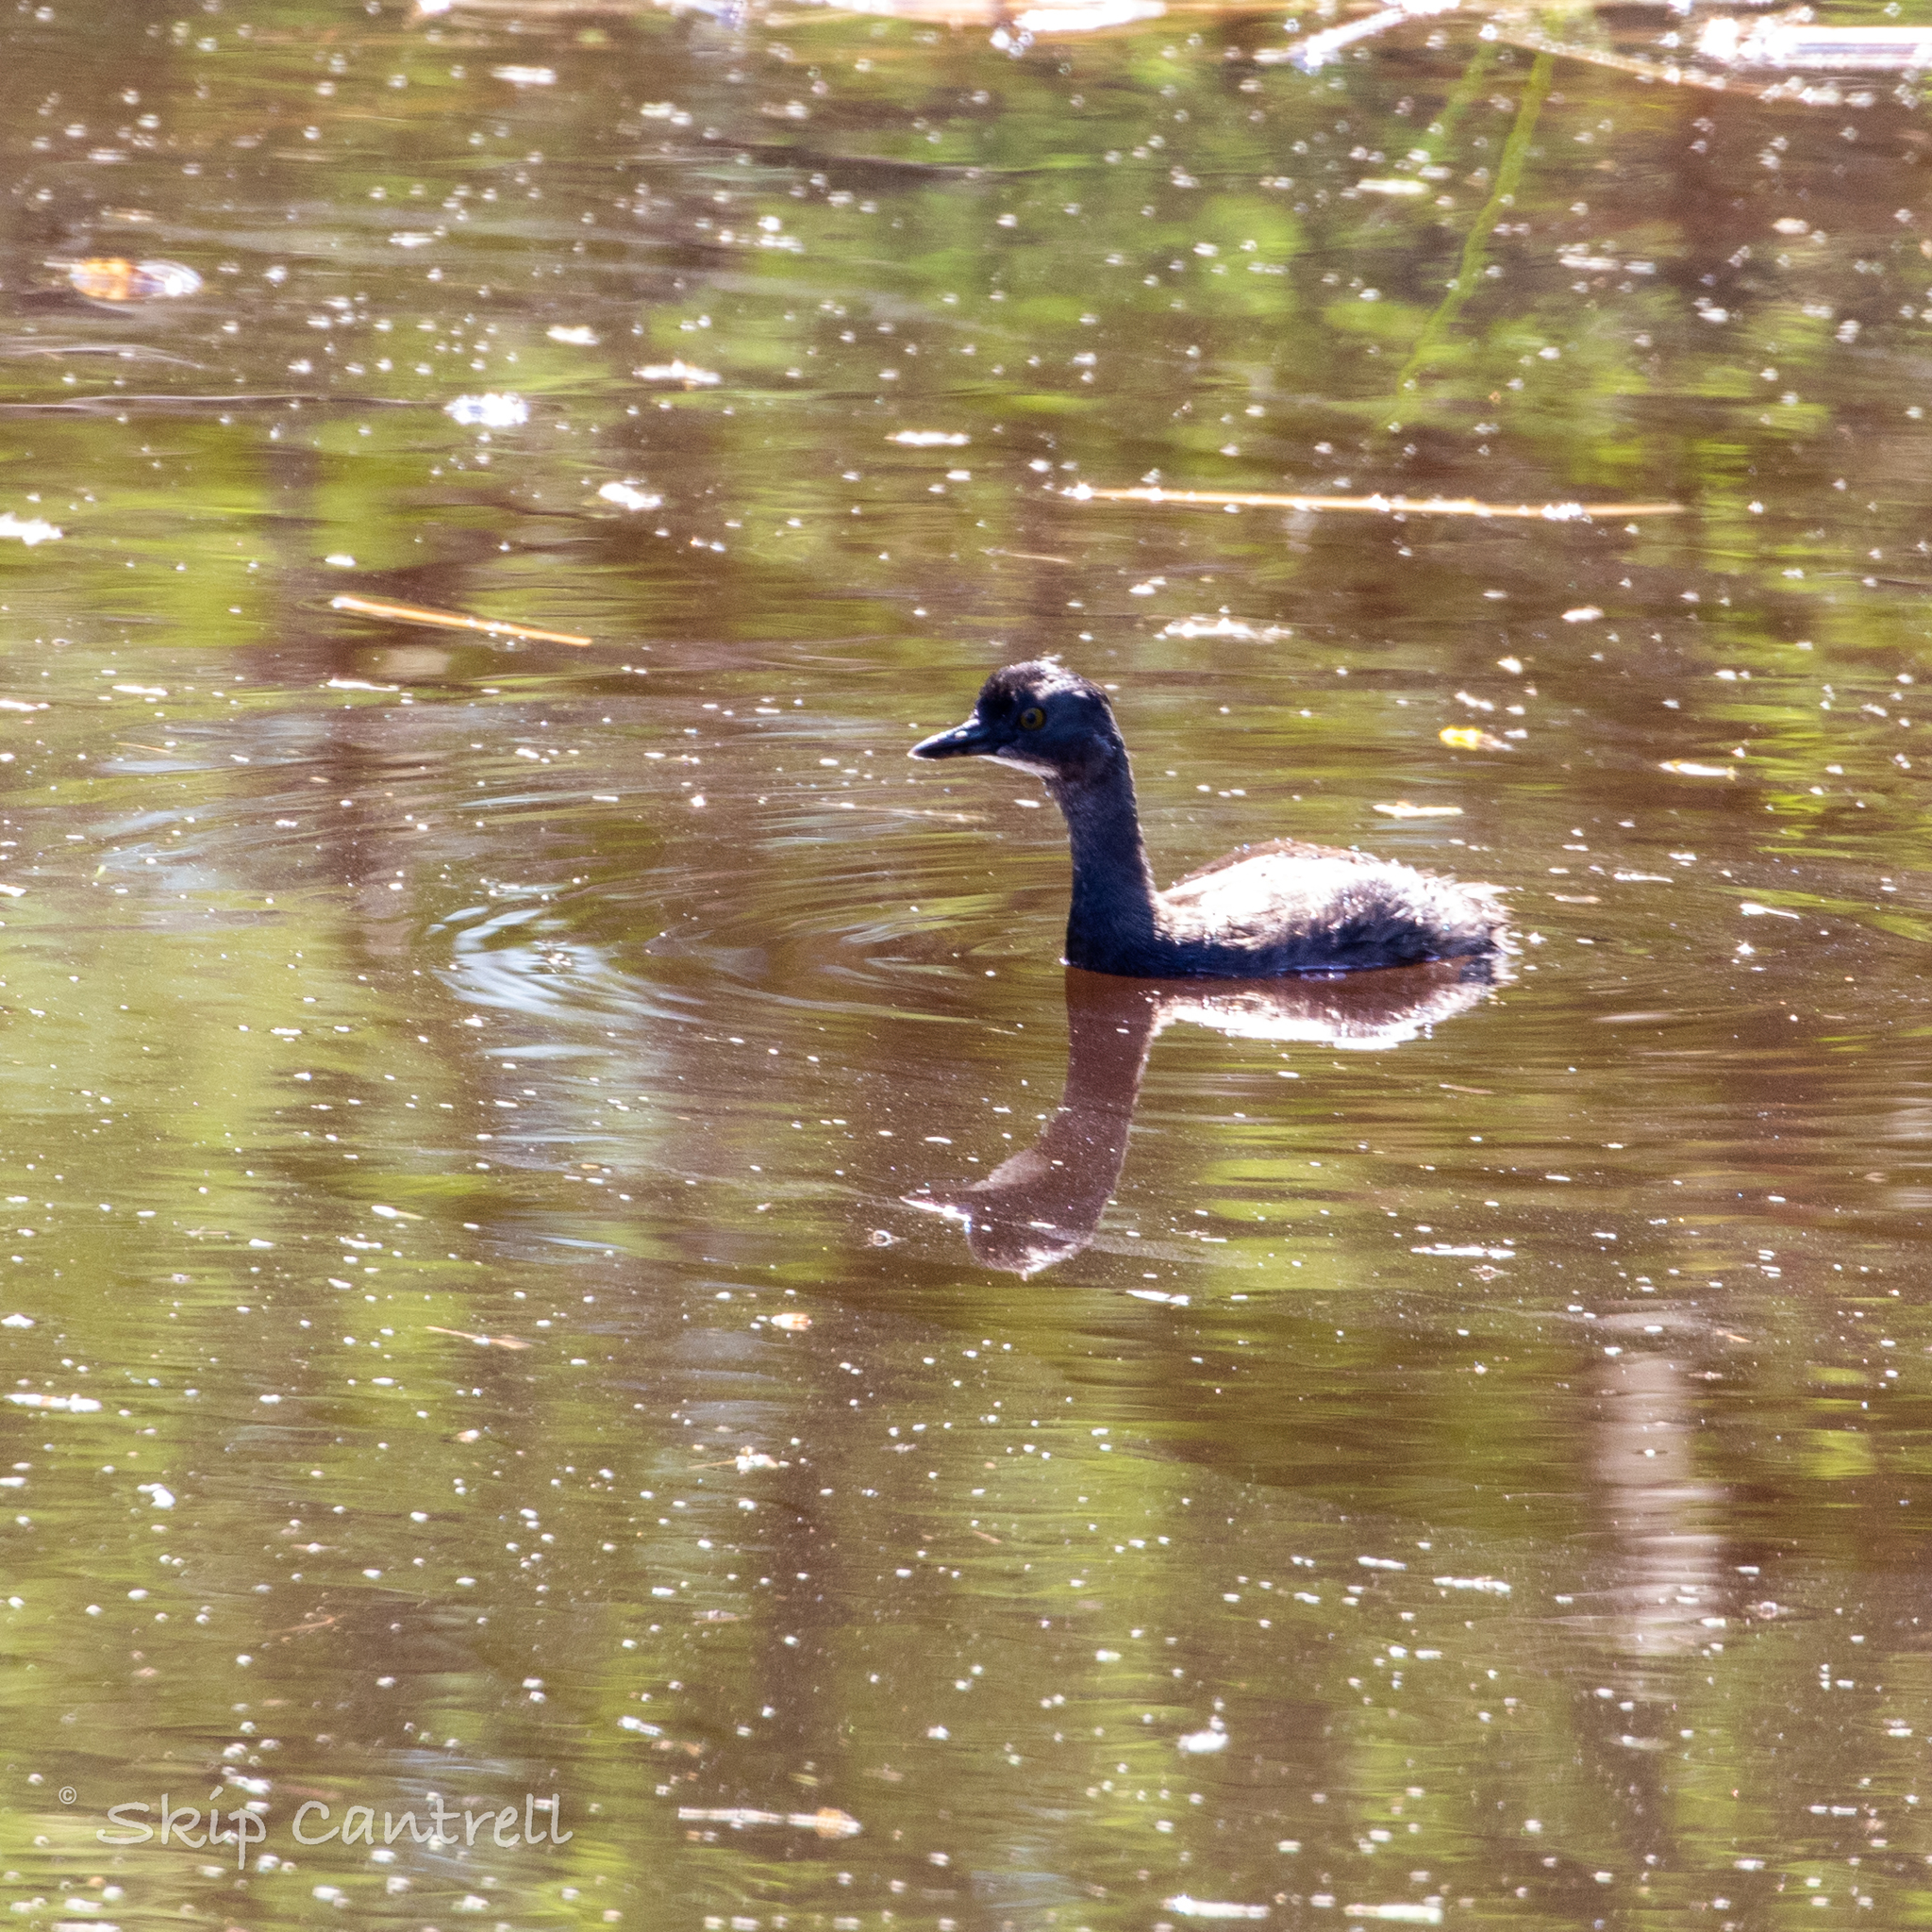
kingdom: Animalia
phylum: Chordata
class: Aves
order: Podicipediformes
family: Podicipedidae
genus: Tachybaptus
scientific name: Tachybaptus dominicus
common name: Least grebe
